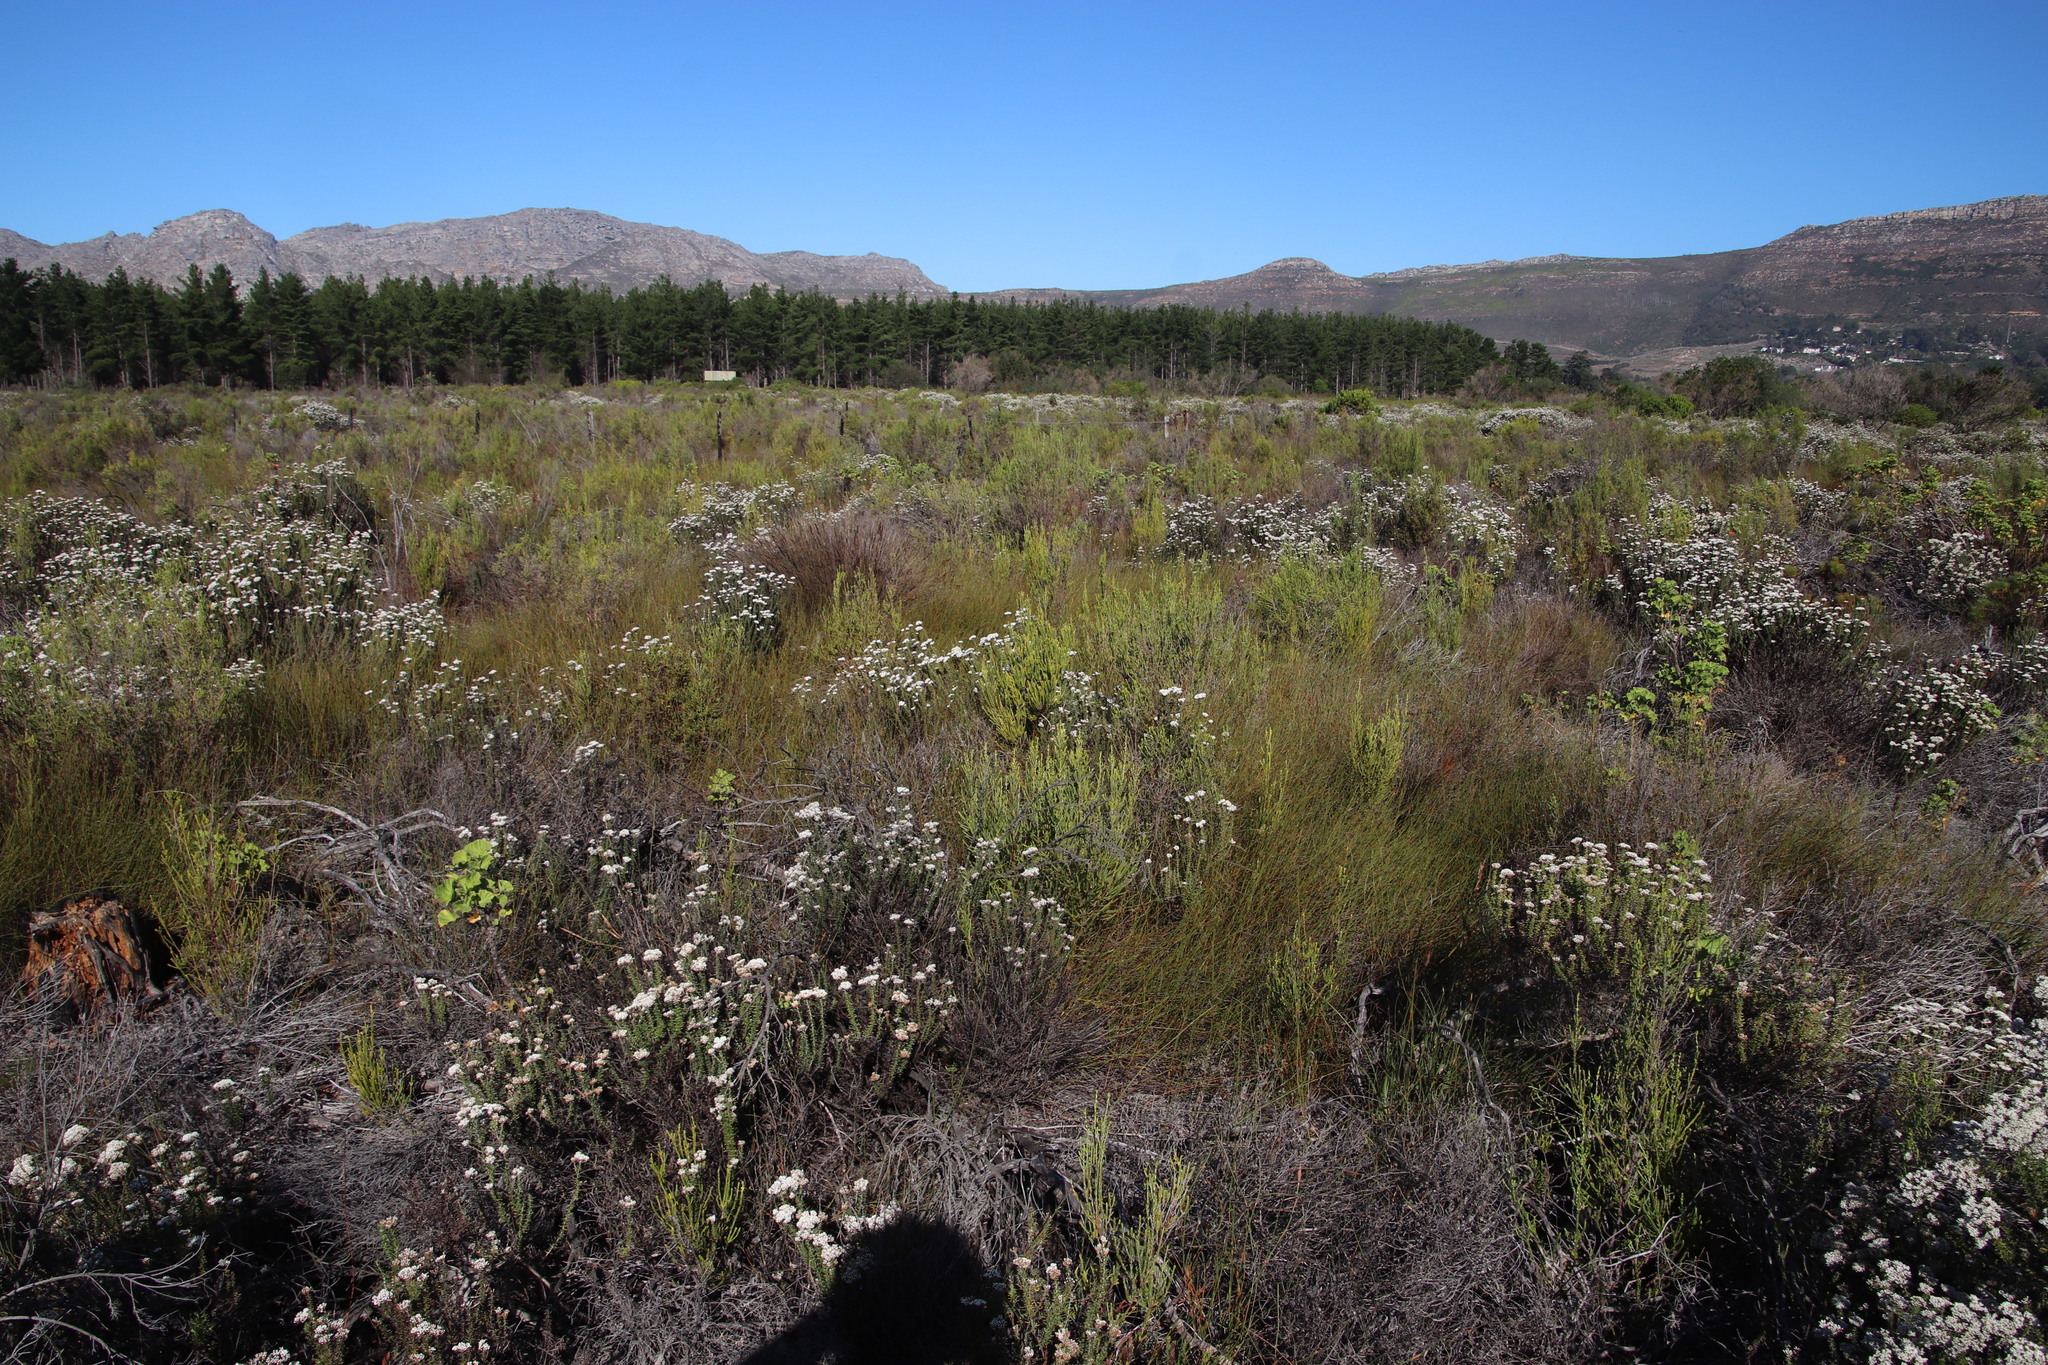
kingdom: Plantae
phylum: Tracheophyta
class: Liliopsida
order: Poales
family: Restionaceae
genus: Willdenowia
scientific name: Willdenowia sulcata
